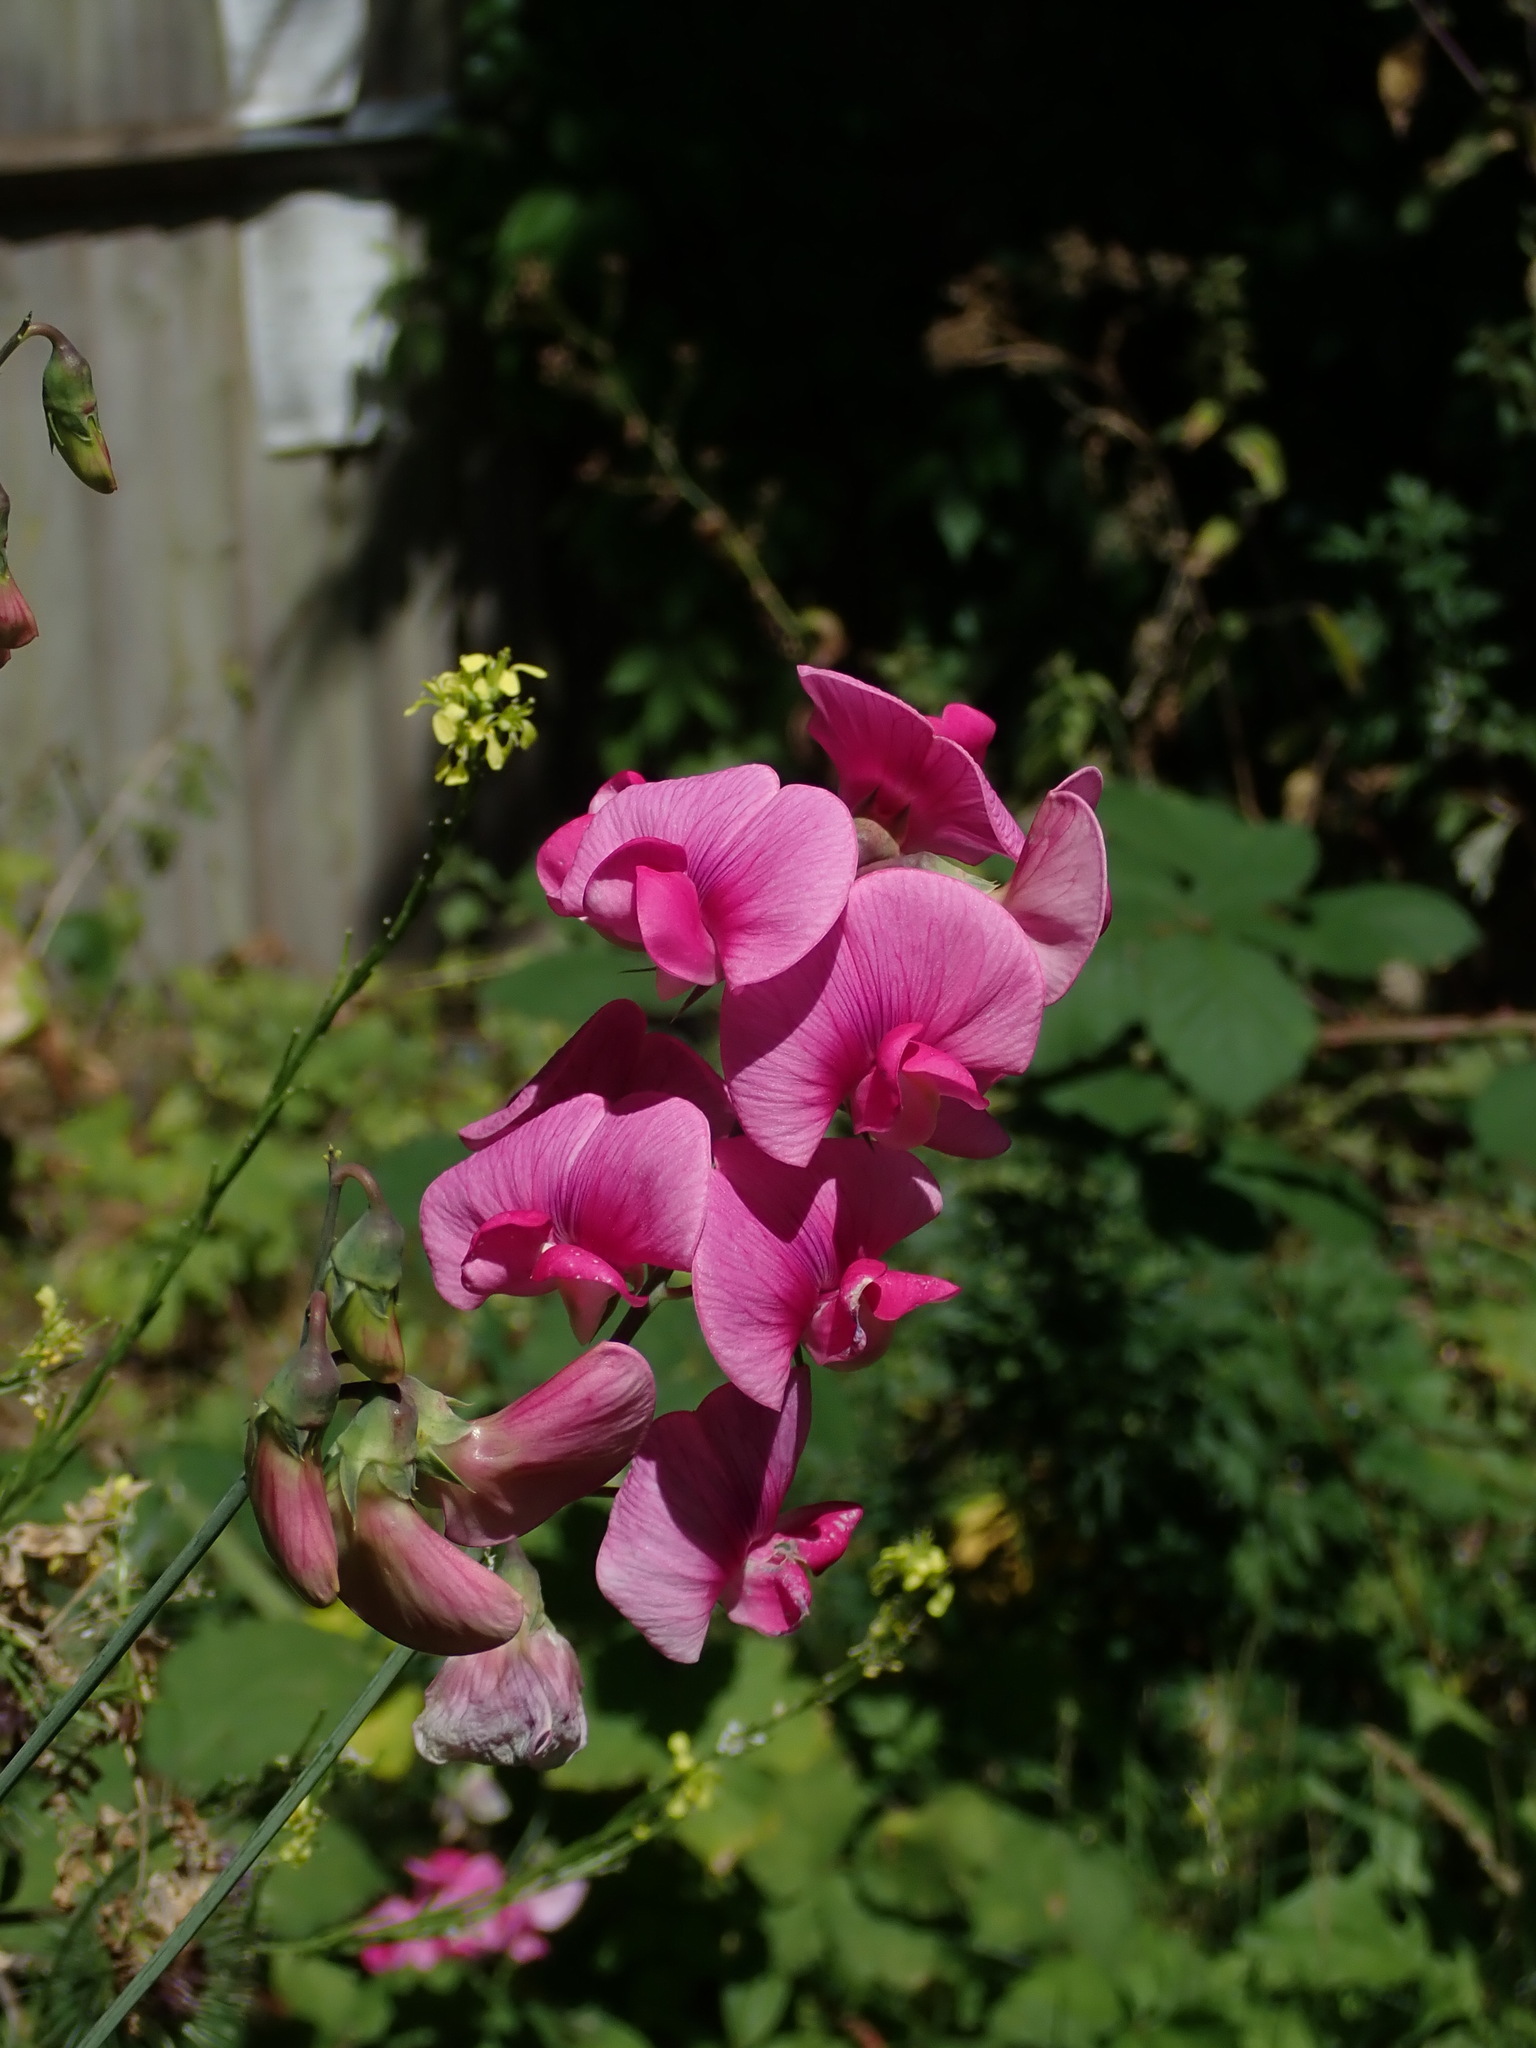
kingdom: Plantae
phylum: Tracheophyta
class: Magnoliopsida
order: Fabales
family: Fabaceae
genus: Lathyrus
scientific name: Lathyrus latifolius
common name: Perennial pea
